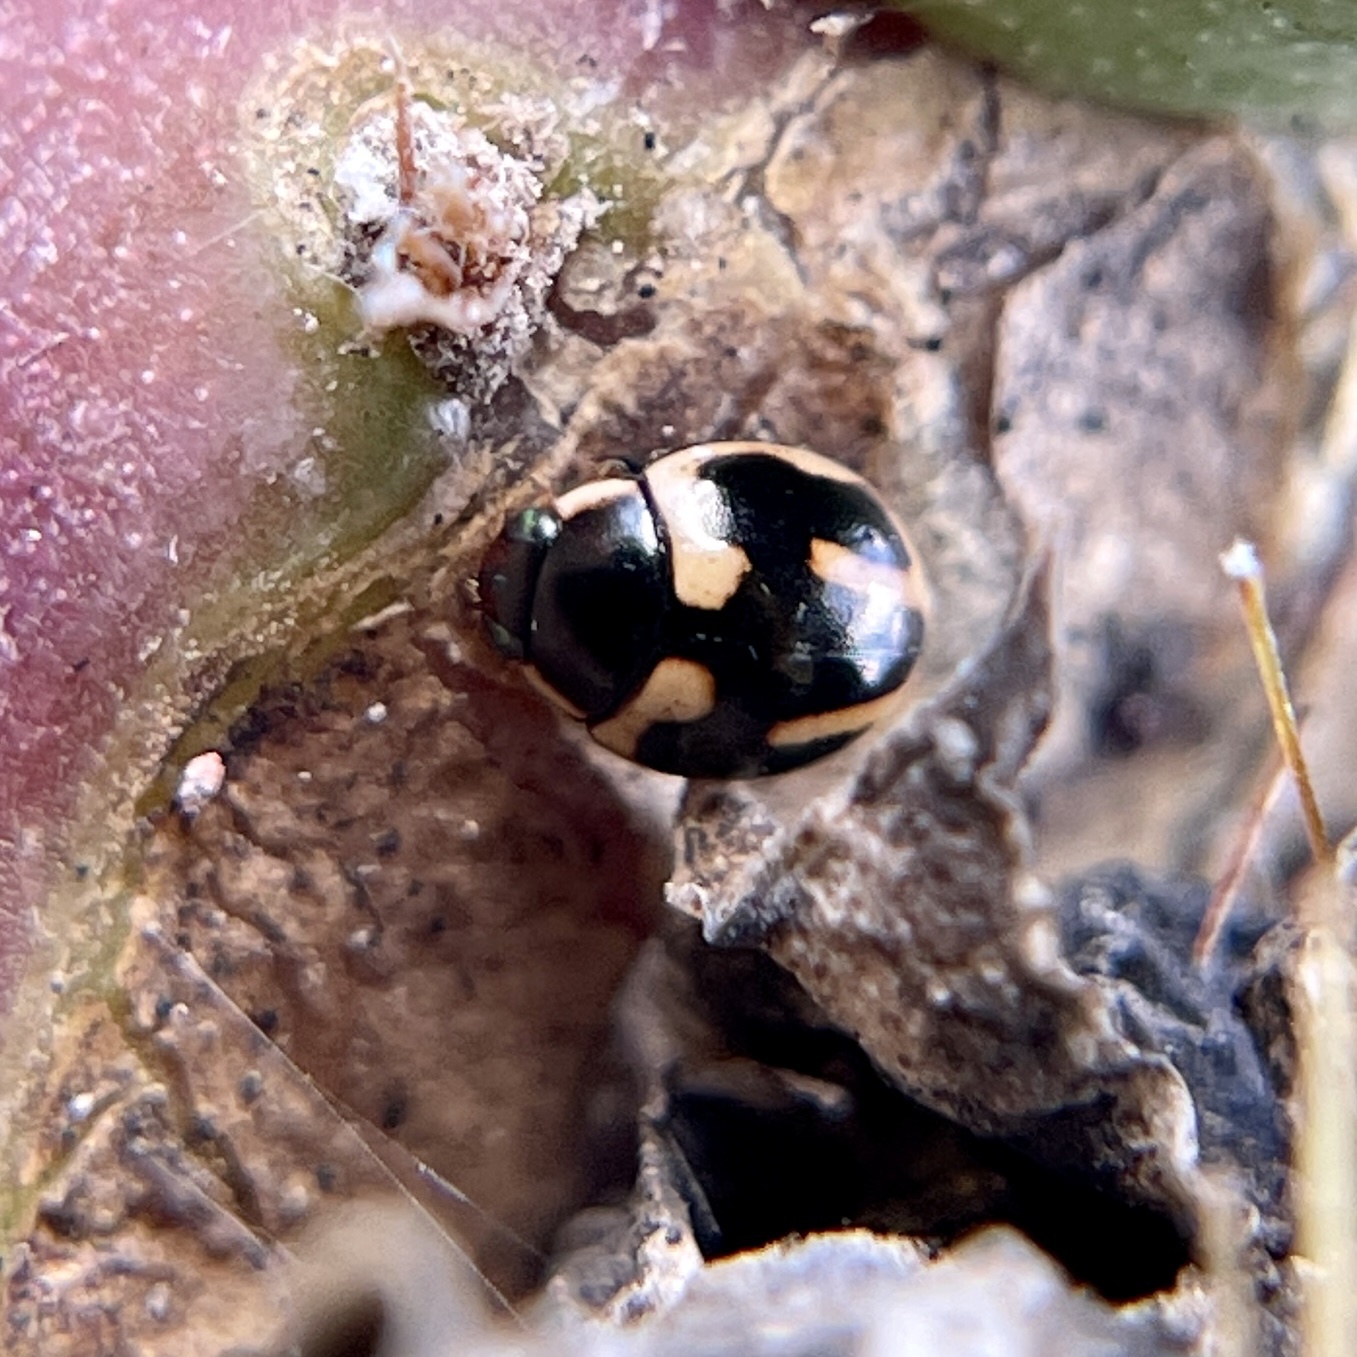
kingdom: Animalia
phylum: Arthropoda
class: Insecta
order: Coleoptera
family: Coccinellidae
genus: Hyperaspis
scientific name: Hyperaspis trifurcata
